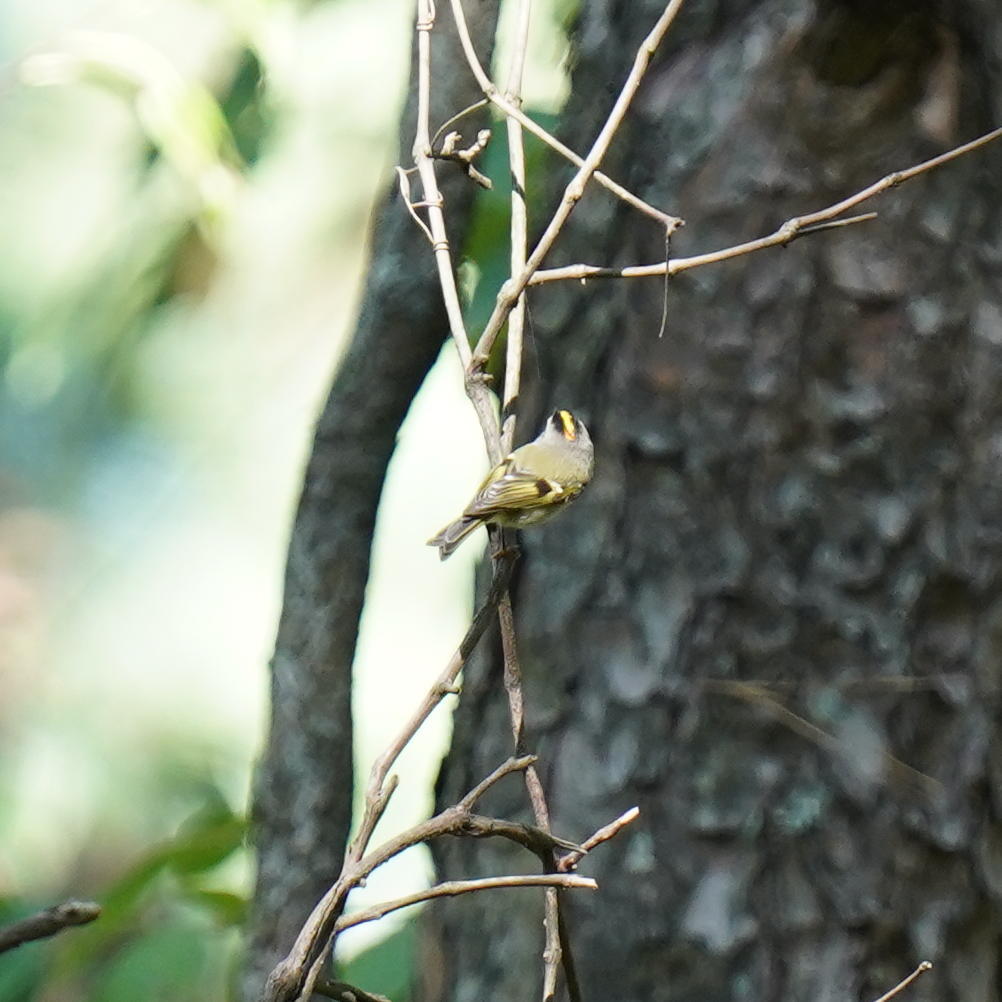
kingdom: Animalia
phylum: Chordata
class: Aves
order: Passeriformes
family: Regulidae
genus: Regulus
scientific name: Regulus satrapa
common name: Golden-crowned kinglet
